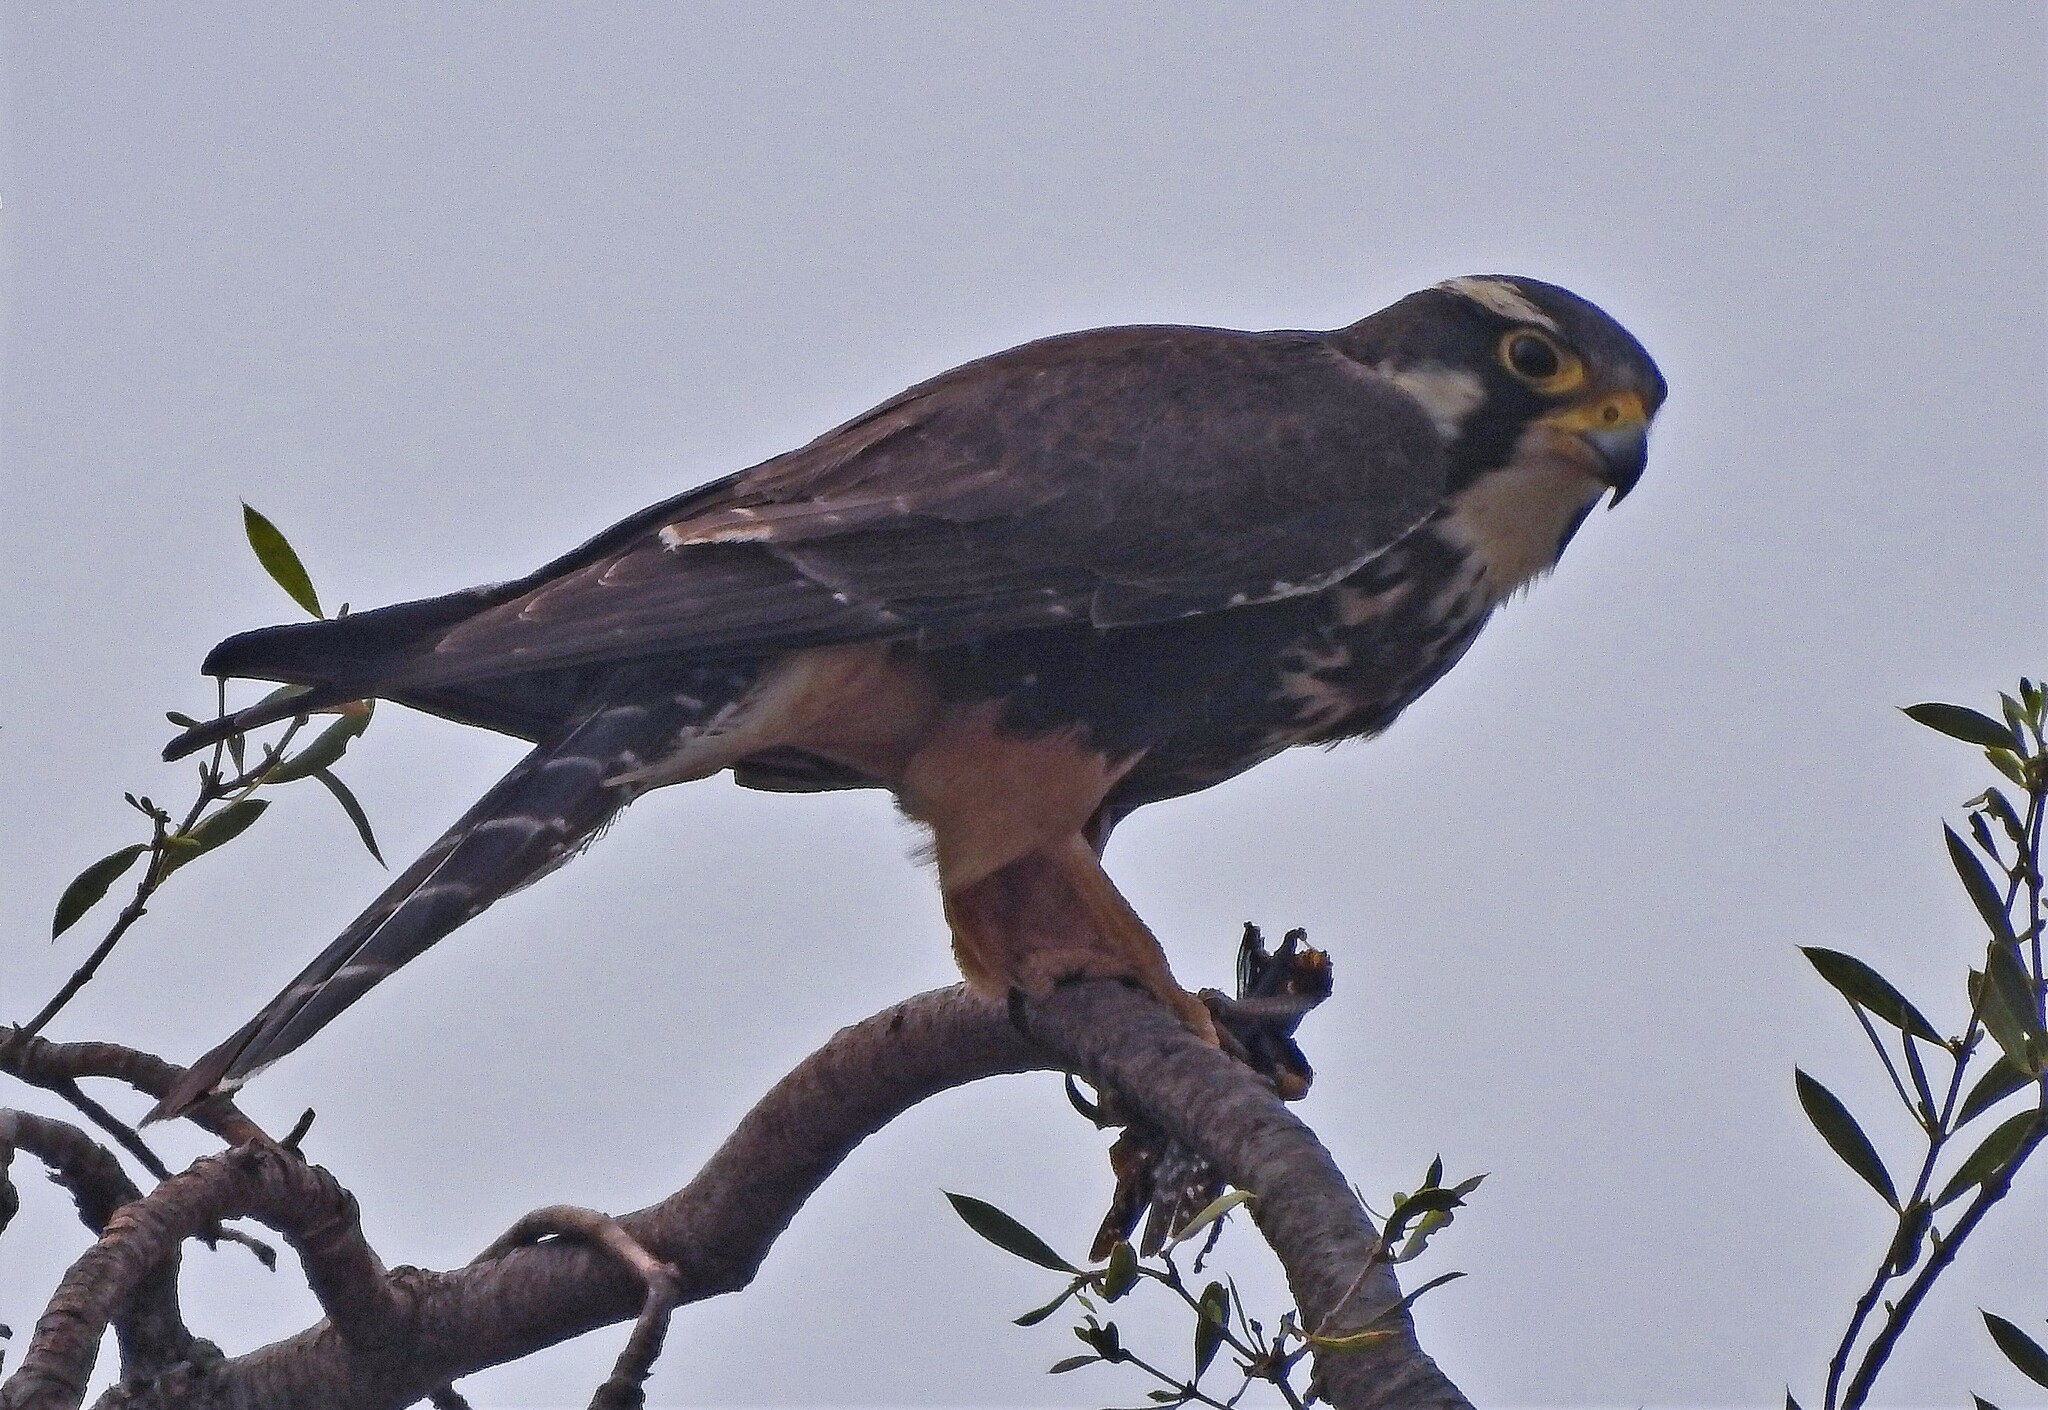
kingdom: Animalia
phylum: Chordata
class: Aves
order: Falconiformes
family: Falconidae
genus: Falco
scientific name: Falco femoralis
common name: Aplomado falcon
